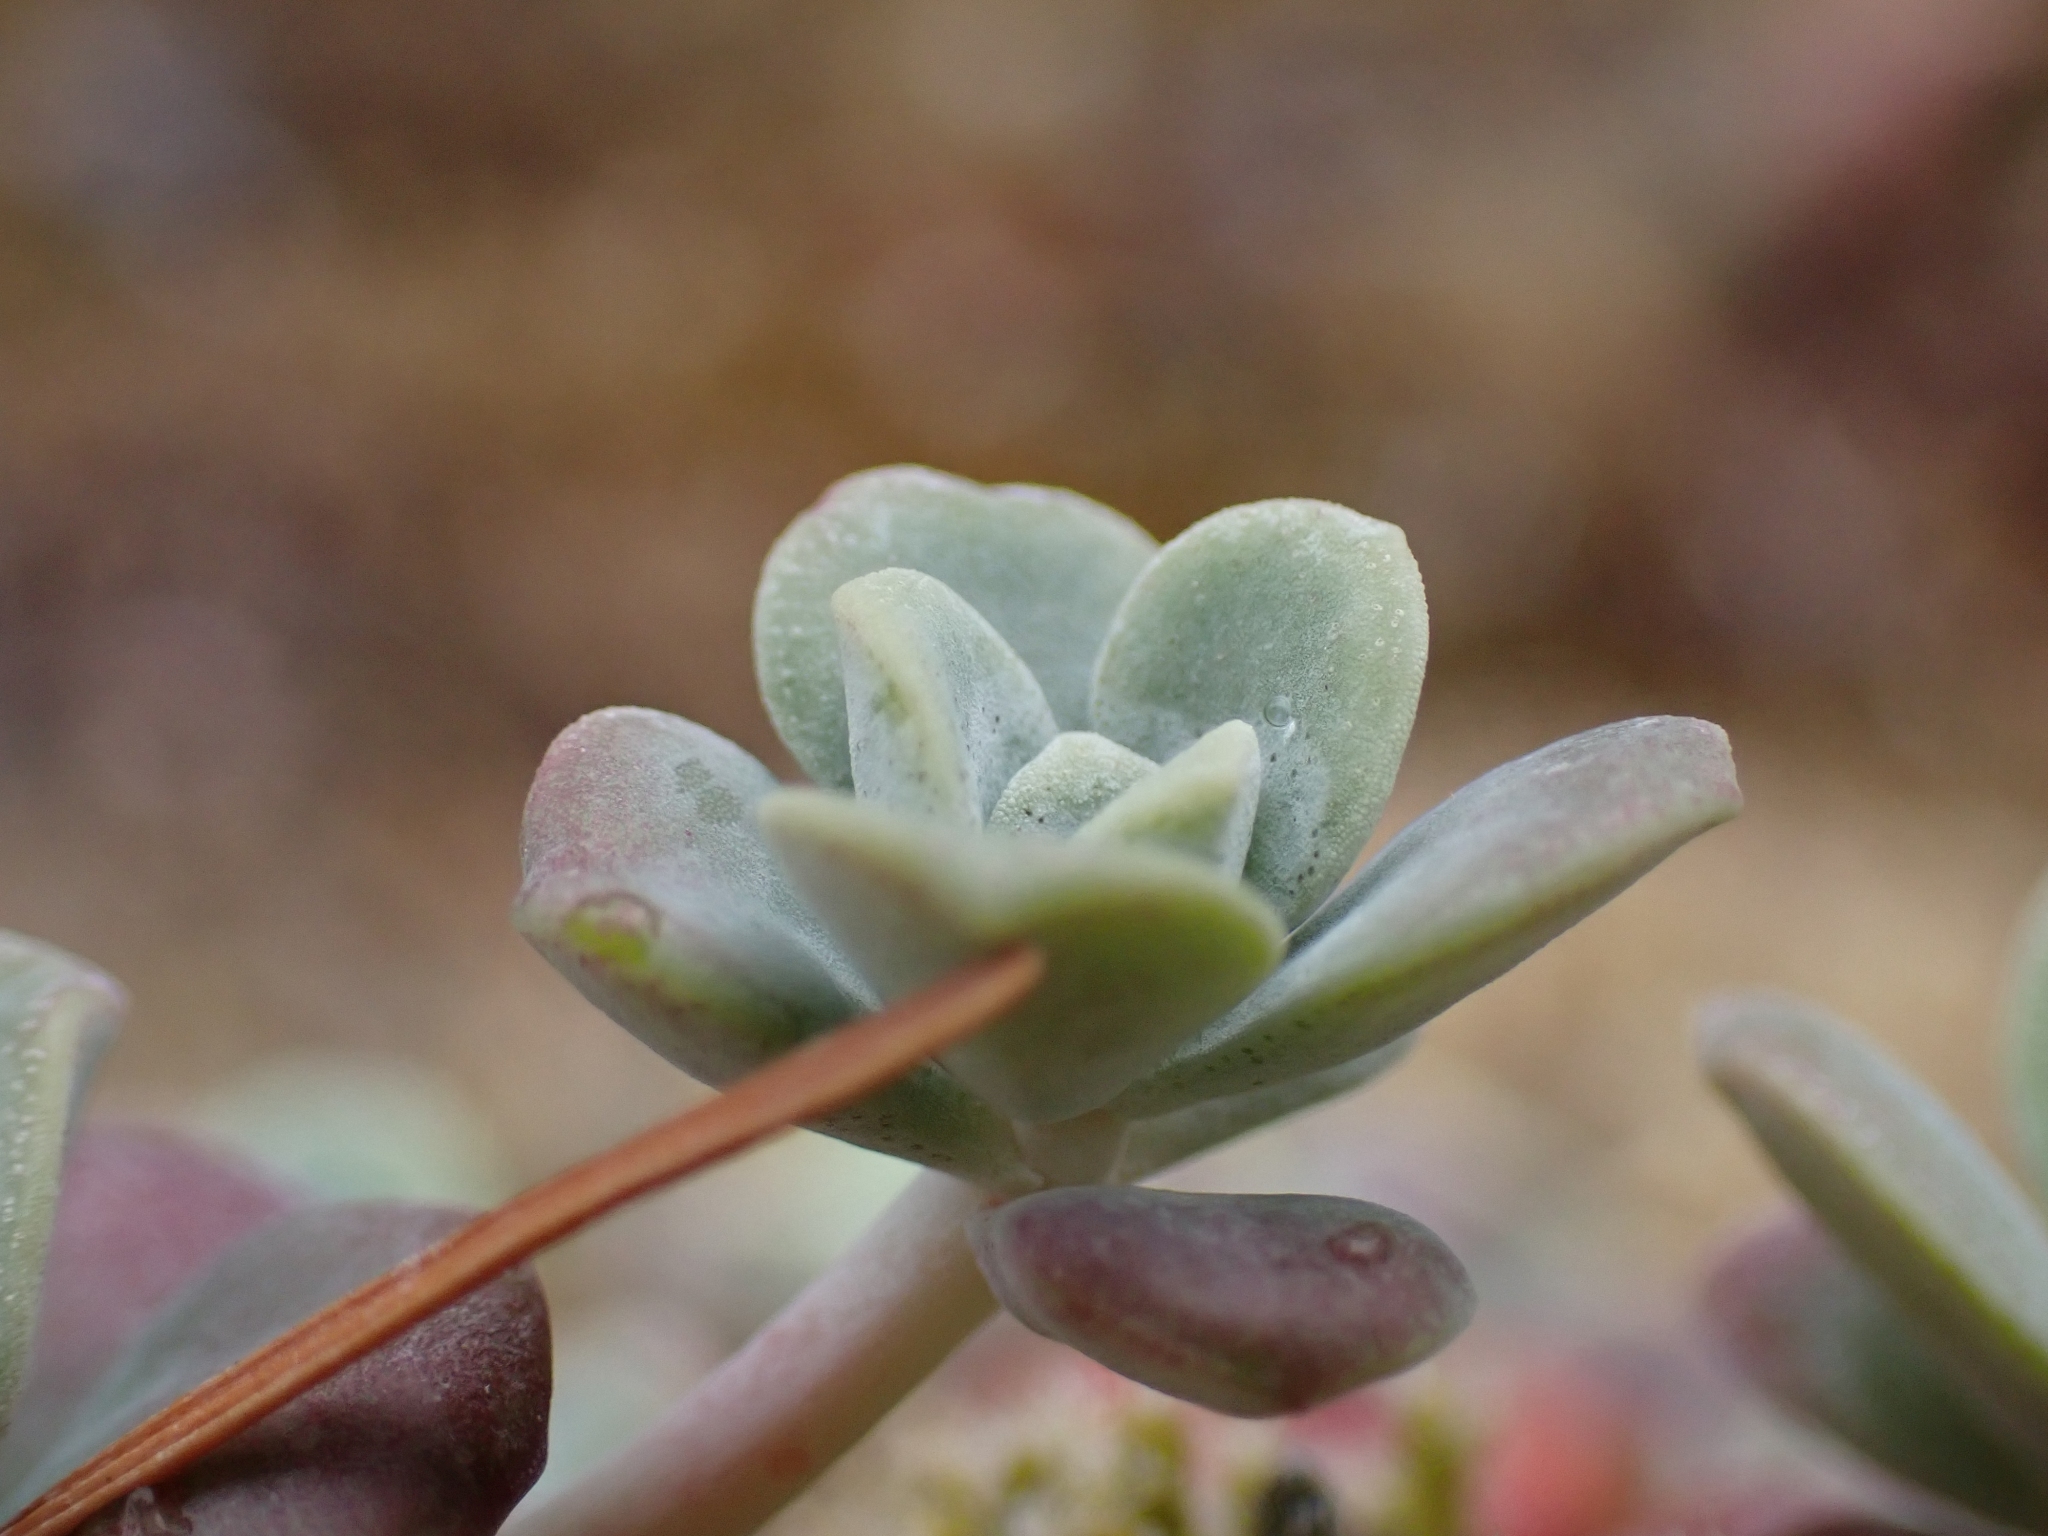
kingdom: Plantae
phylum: Tracheophyta
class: Magnoliopsida
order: Saxifragales
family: Crassulaceae
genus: Sedum
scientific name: Sedum spathulifolium
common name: Colorado stonecrop
